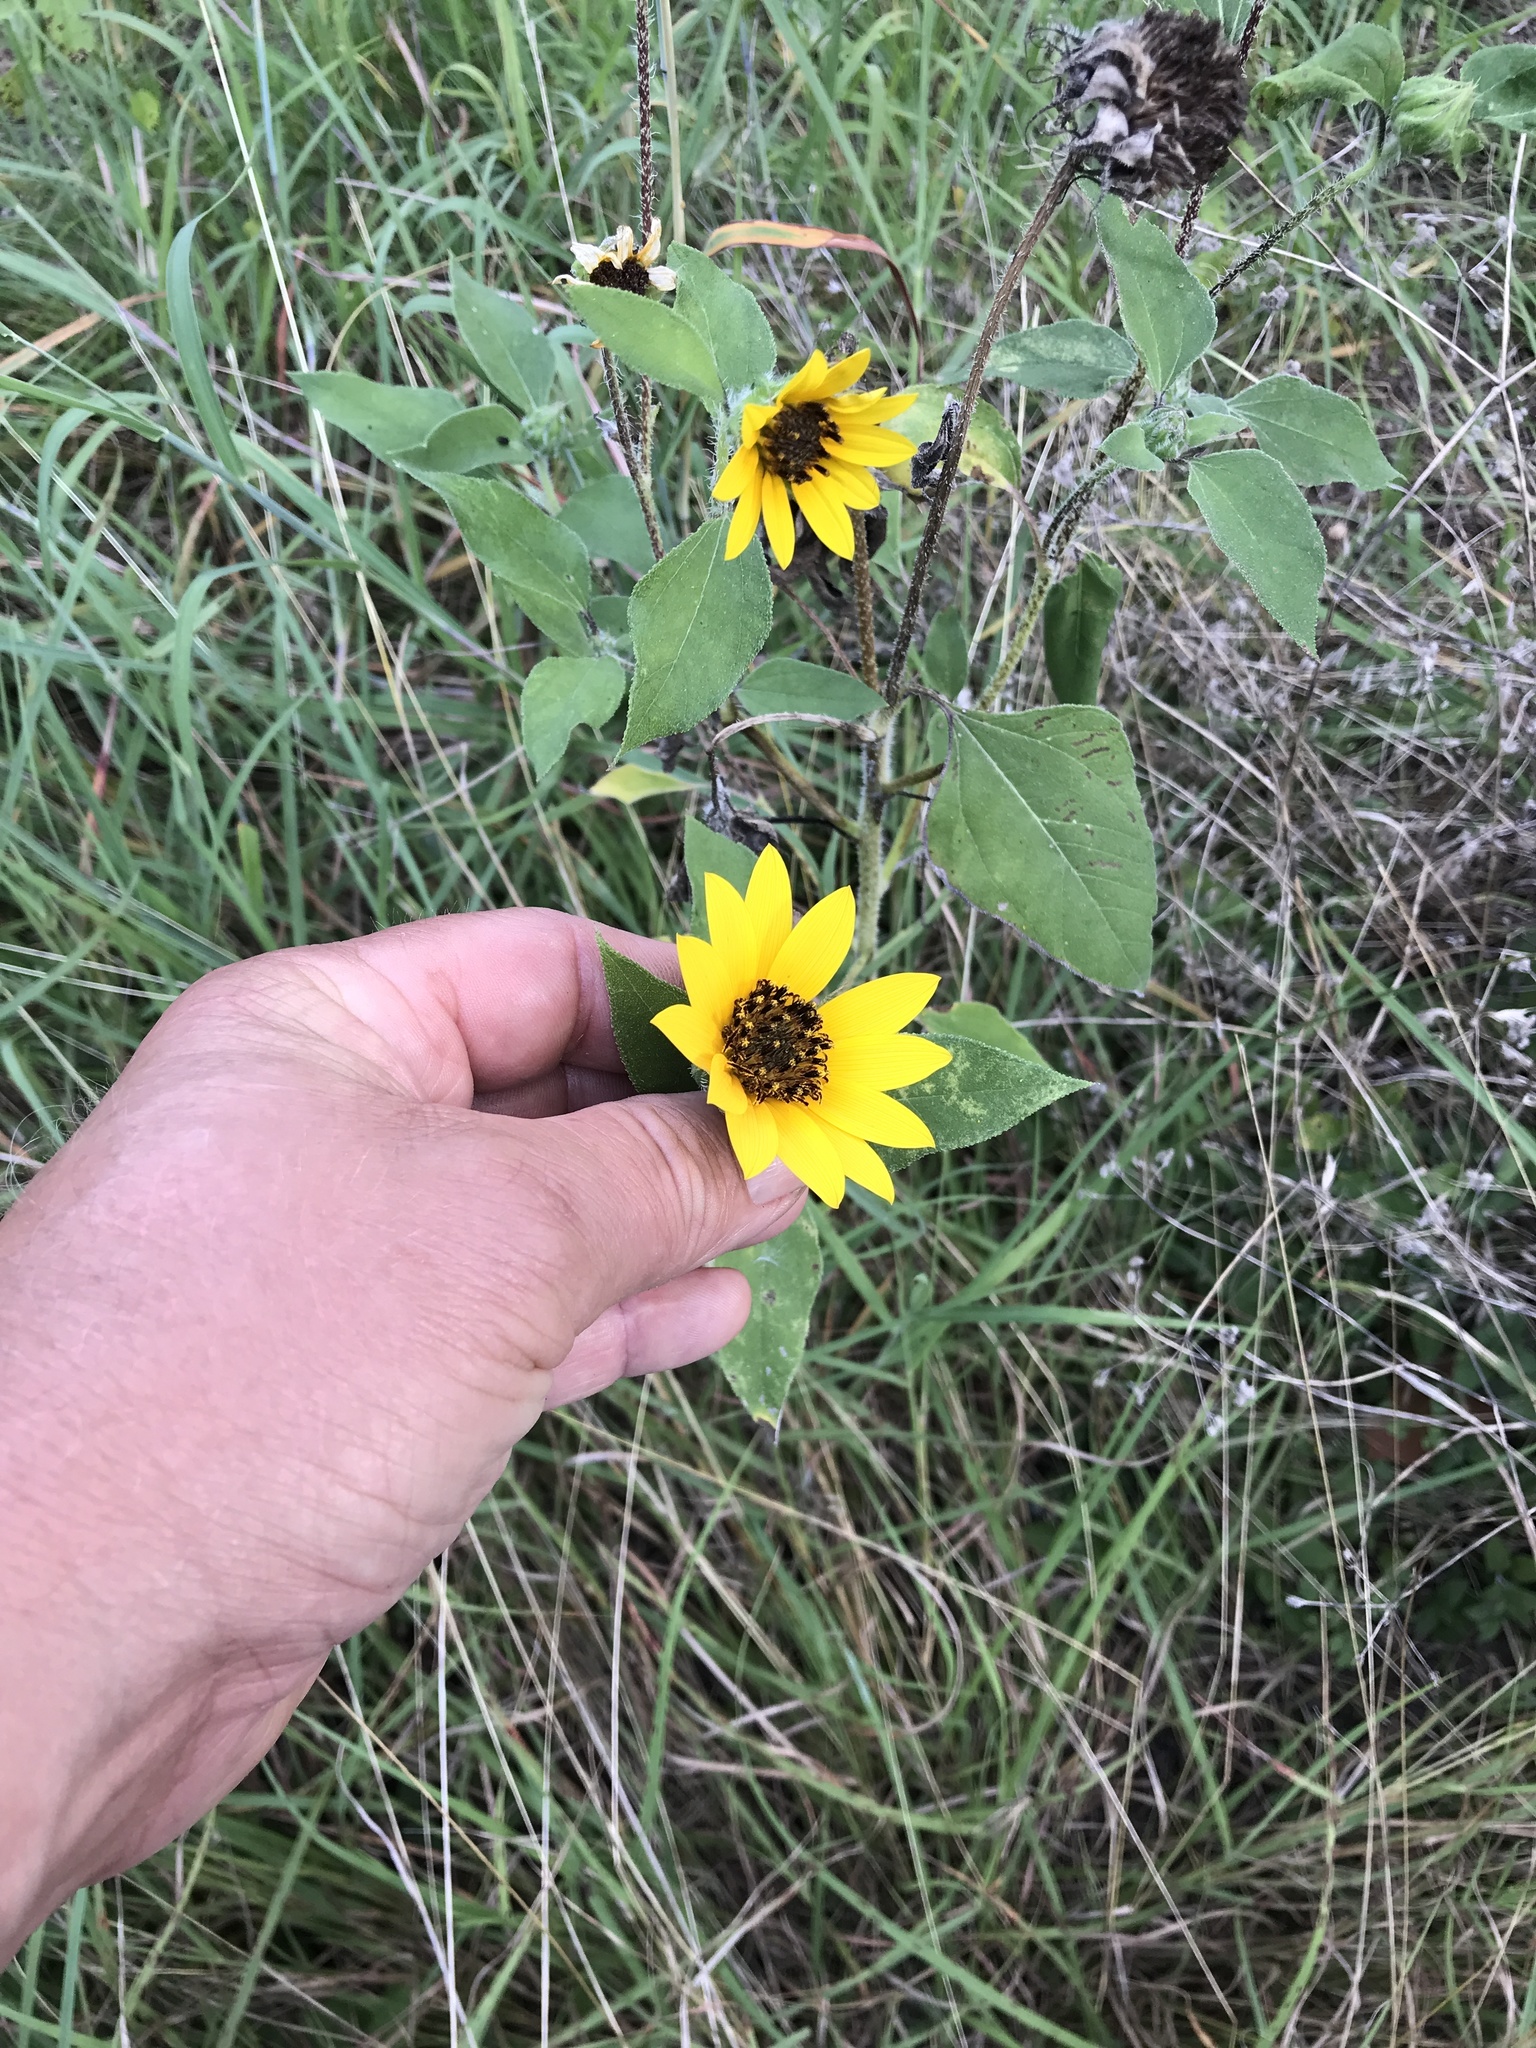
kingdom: Plantae
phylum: Tracheophyta
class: Magnoliopsida
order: Asterales
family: Asteraceae
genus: Helianthus
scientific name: Helianthus annuus
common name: Sunflower
